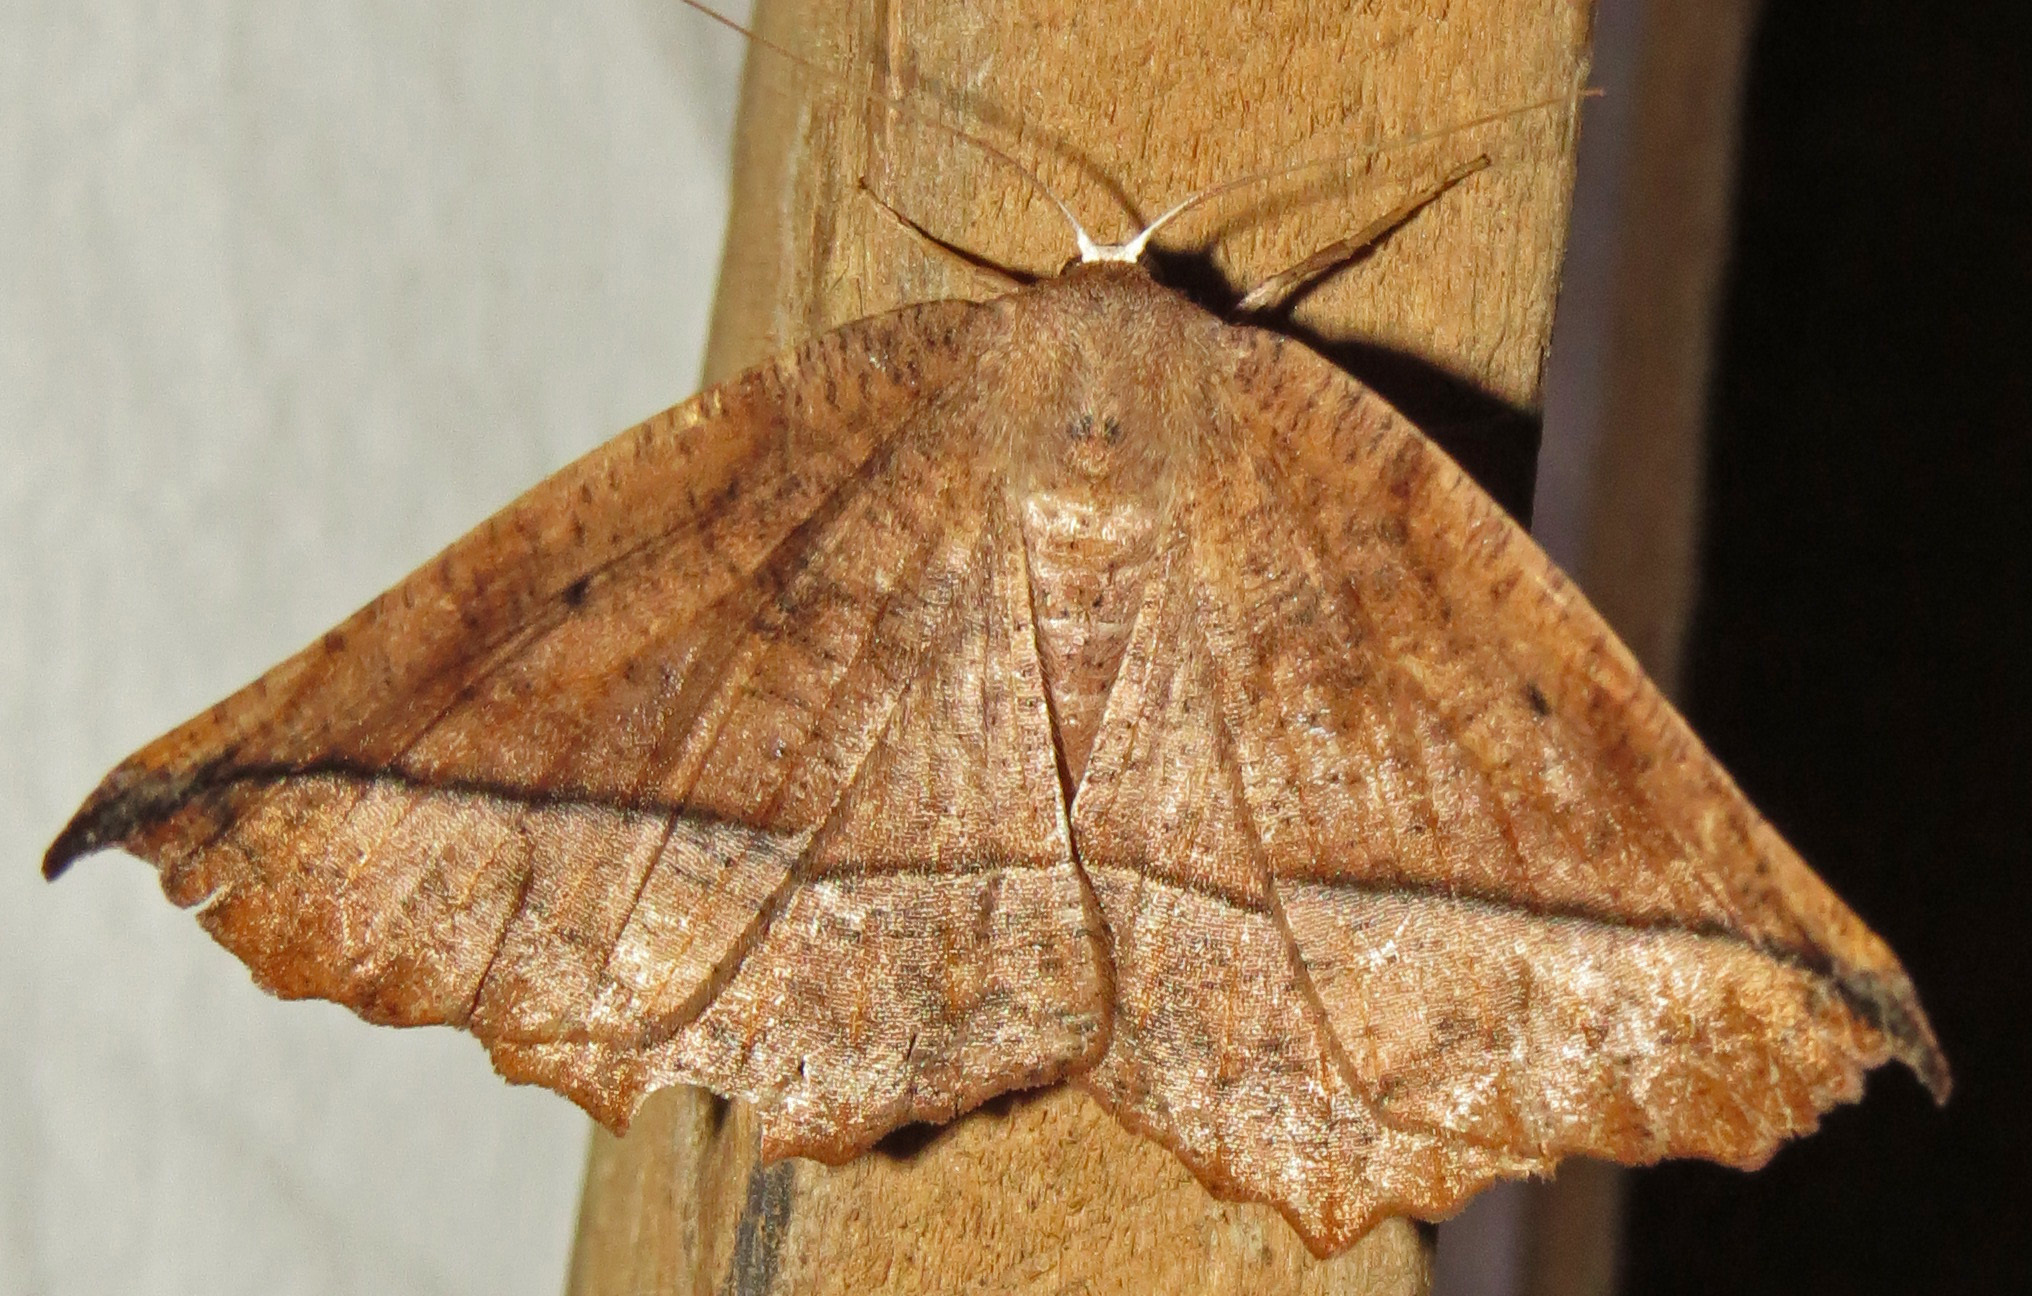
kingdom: Animalia
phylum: Arthropoda
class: Insecta
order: Lepidoptera
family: Geometridae
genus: Eutrapela
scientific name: Eutrapela clemataria
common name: Curved-toothed geometer
